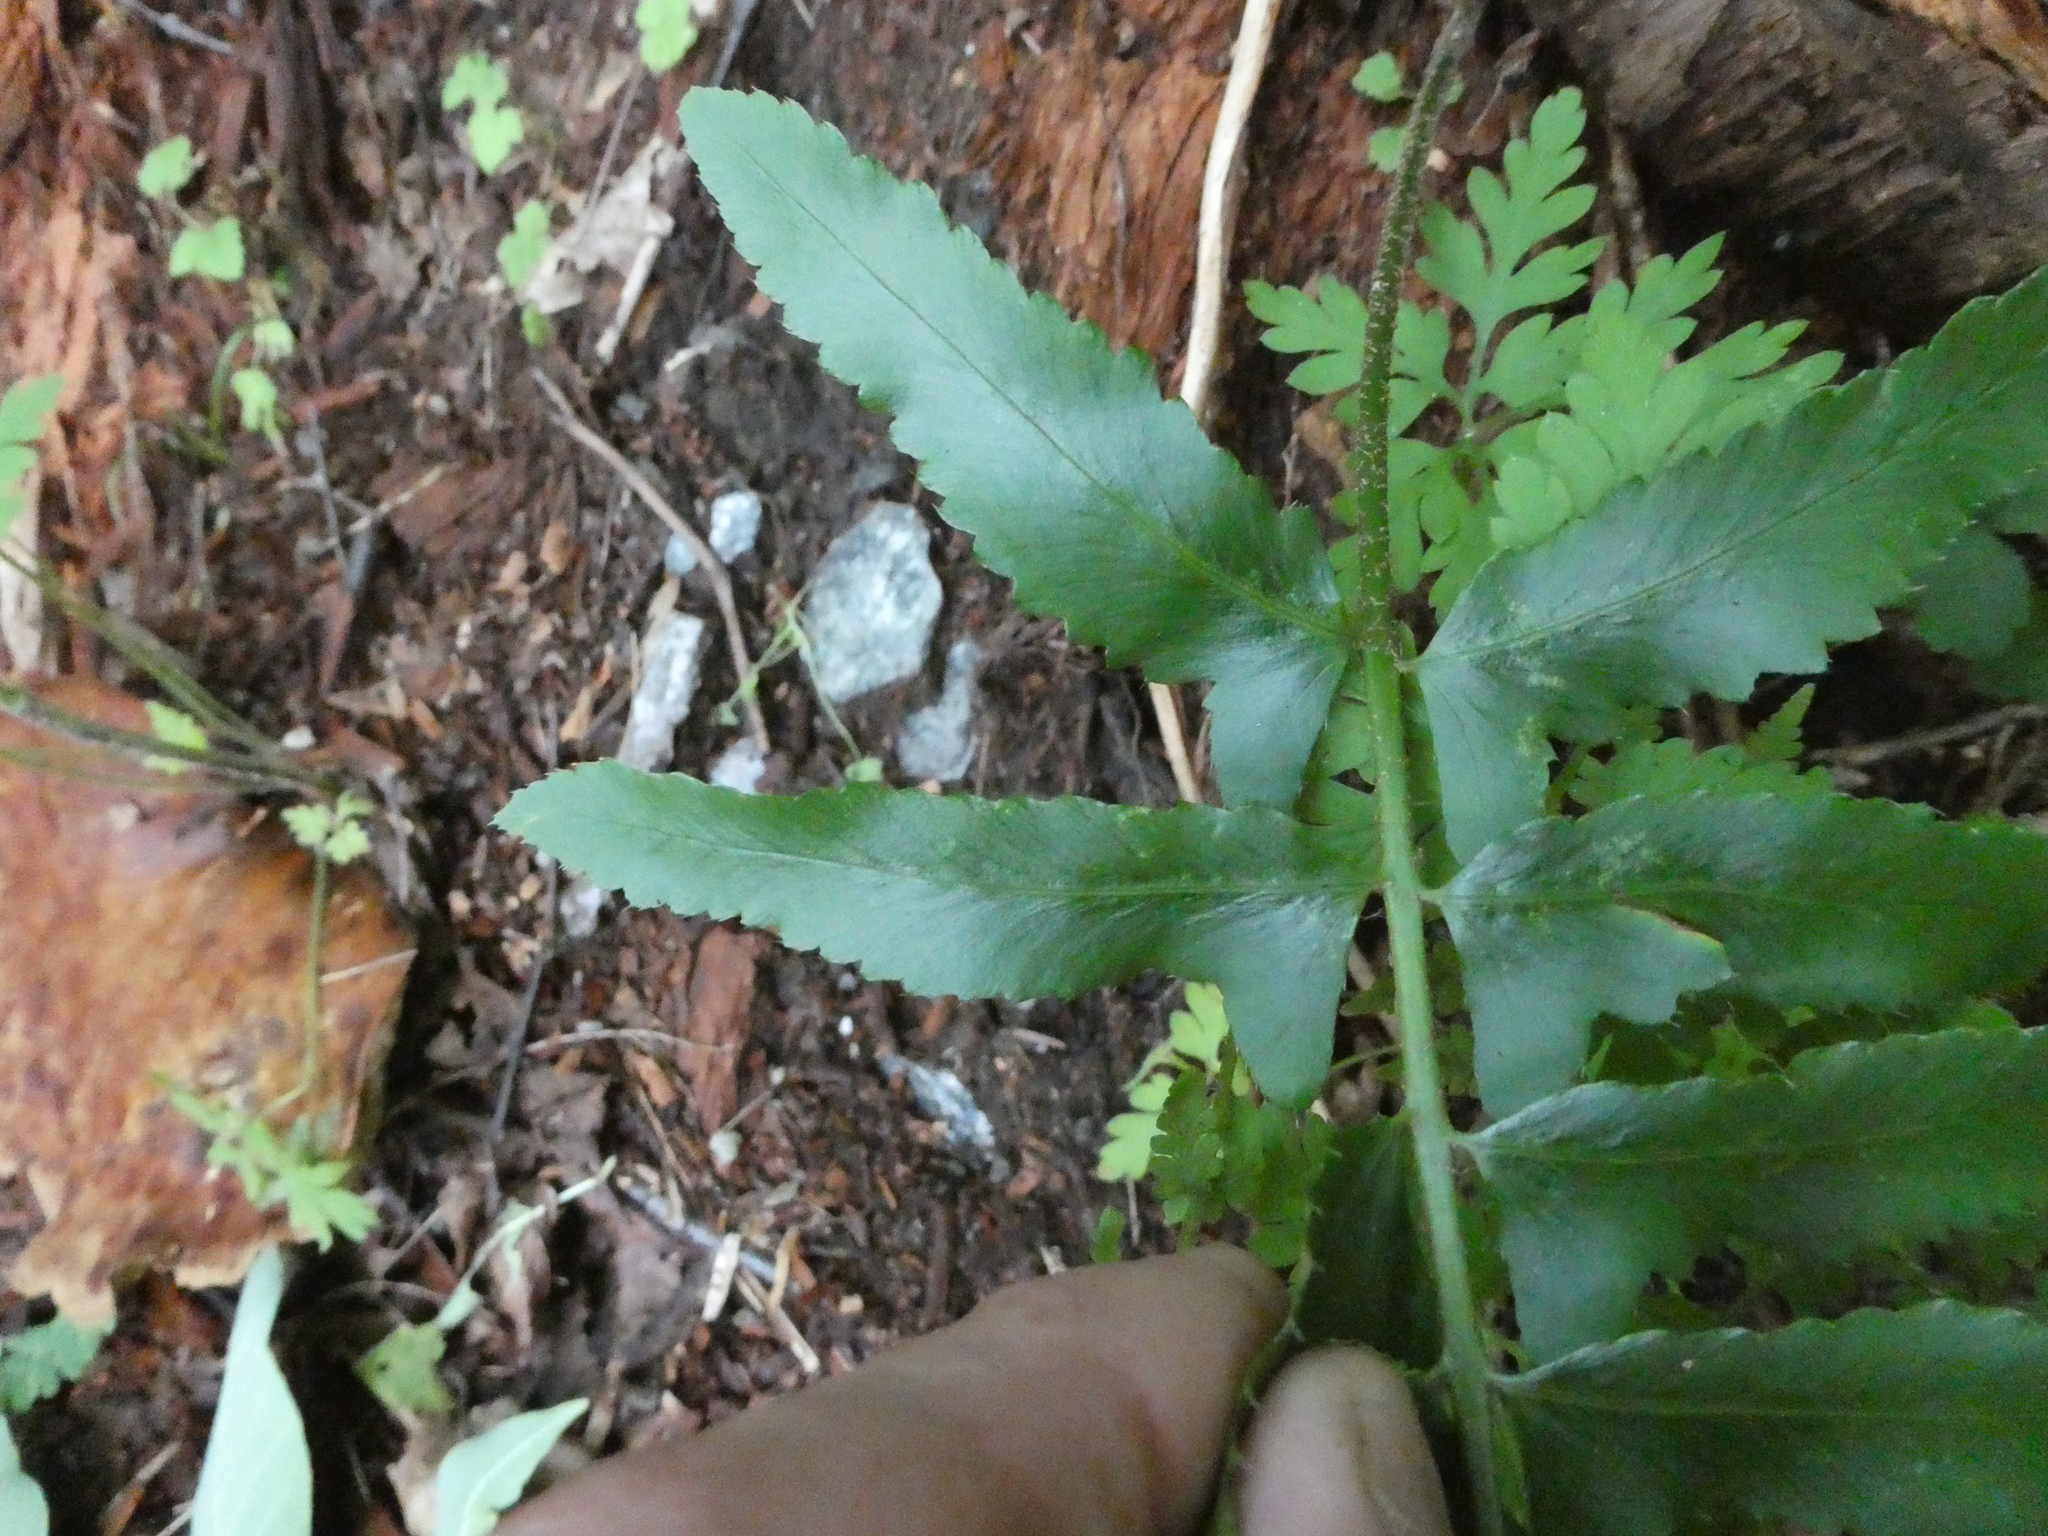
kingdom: Plantae
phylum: Tracheophyta
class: Polypodiopsida
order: Polypodiales
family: Dryopteridaceae
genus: Polystichum
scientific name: Polystichum acrostichoides
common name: Christmas fern
